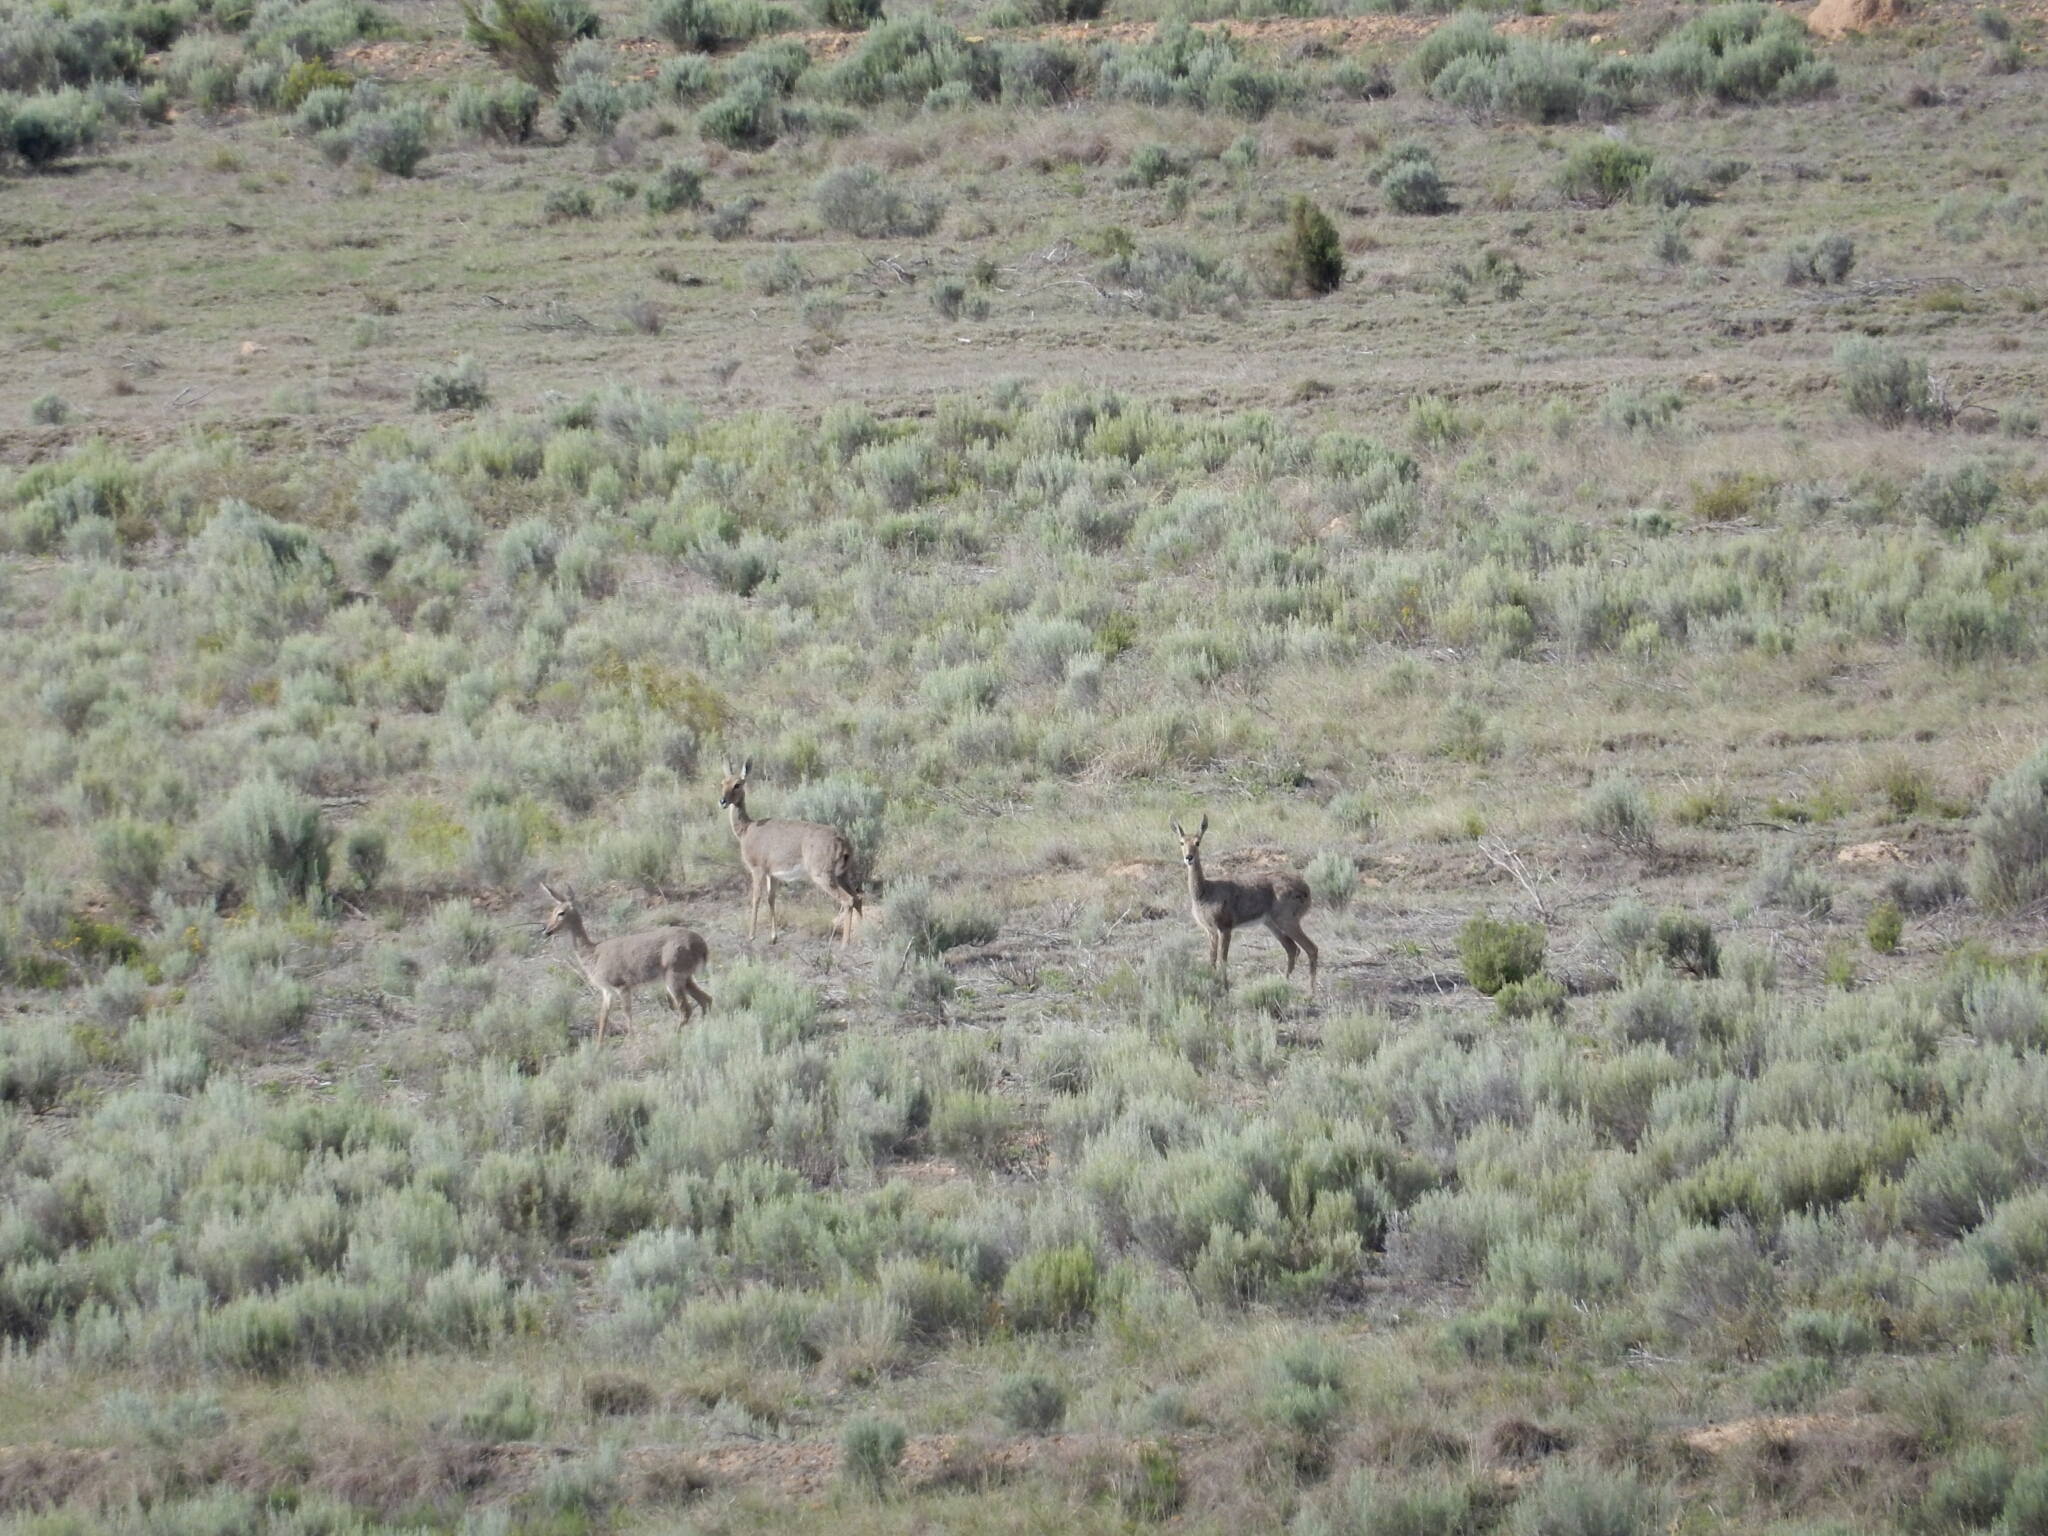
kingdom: Animalia
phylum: Chordata
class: Mammalia
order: Artiodactyla
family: Bovidae
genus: Pelea
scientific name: Pelea capreolus
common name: Common rhebok
